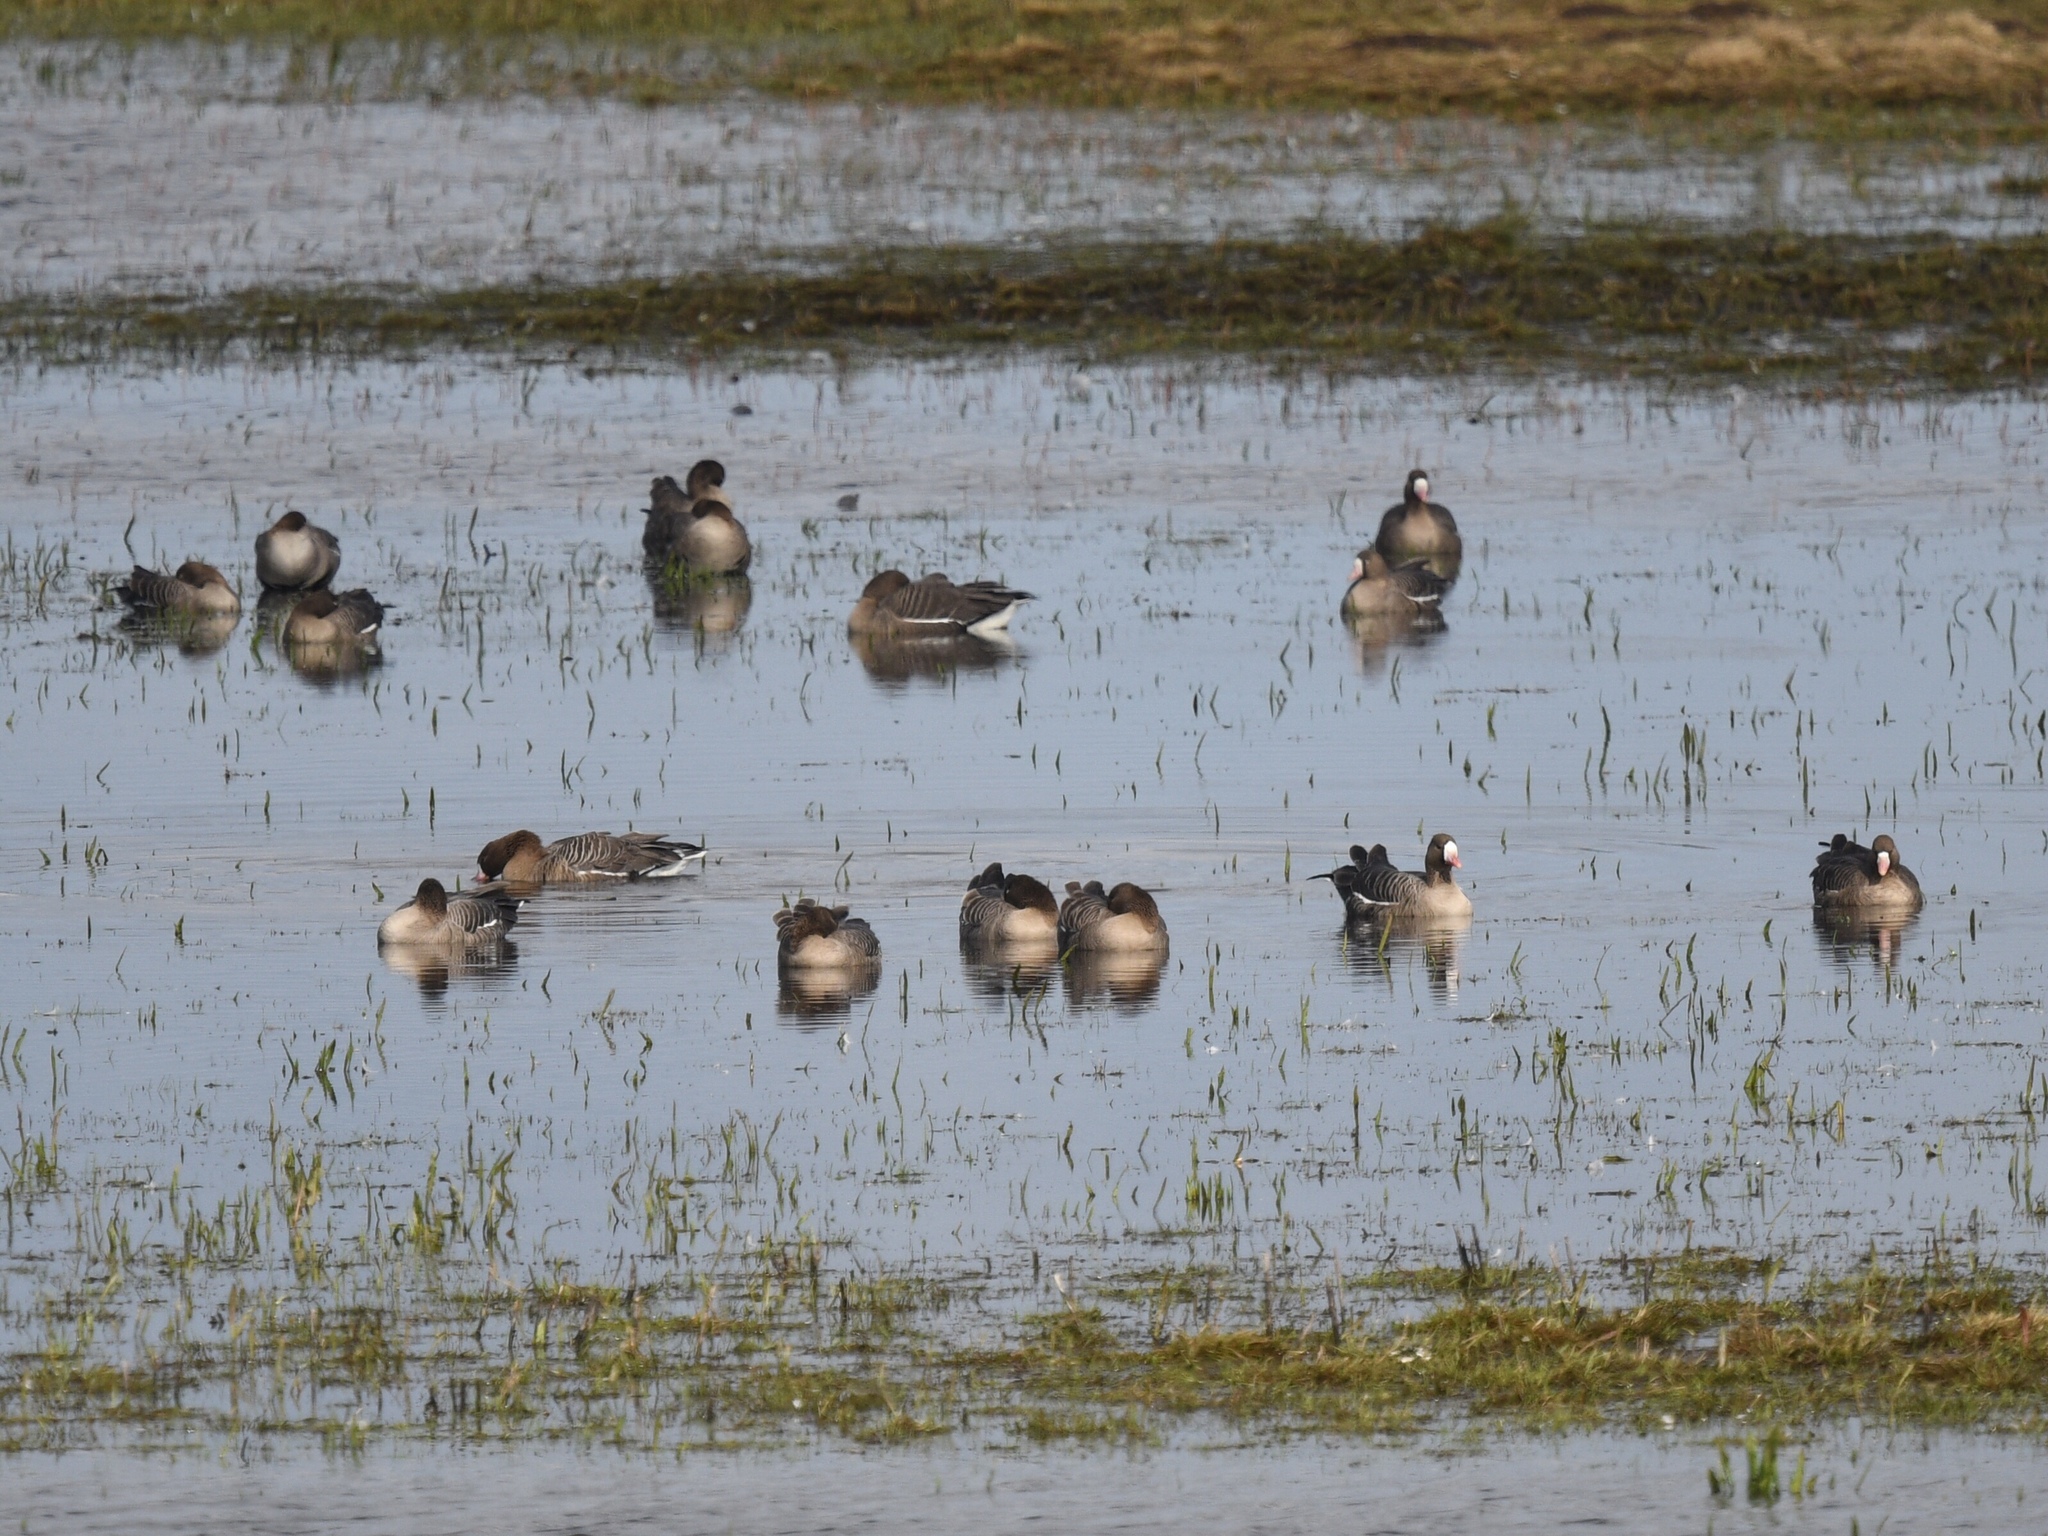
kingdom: Animalia
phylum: Chordata
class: Aves
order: Anseriformes
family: Anatidae
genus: Anser
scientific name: Anser erythropus
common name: Lesser white-fronted goose
